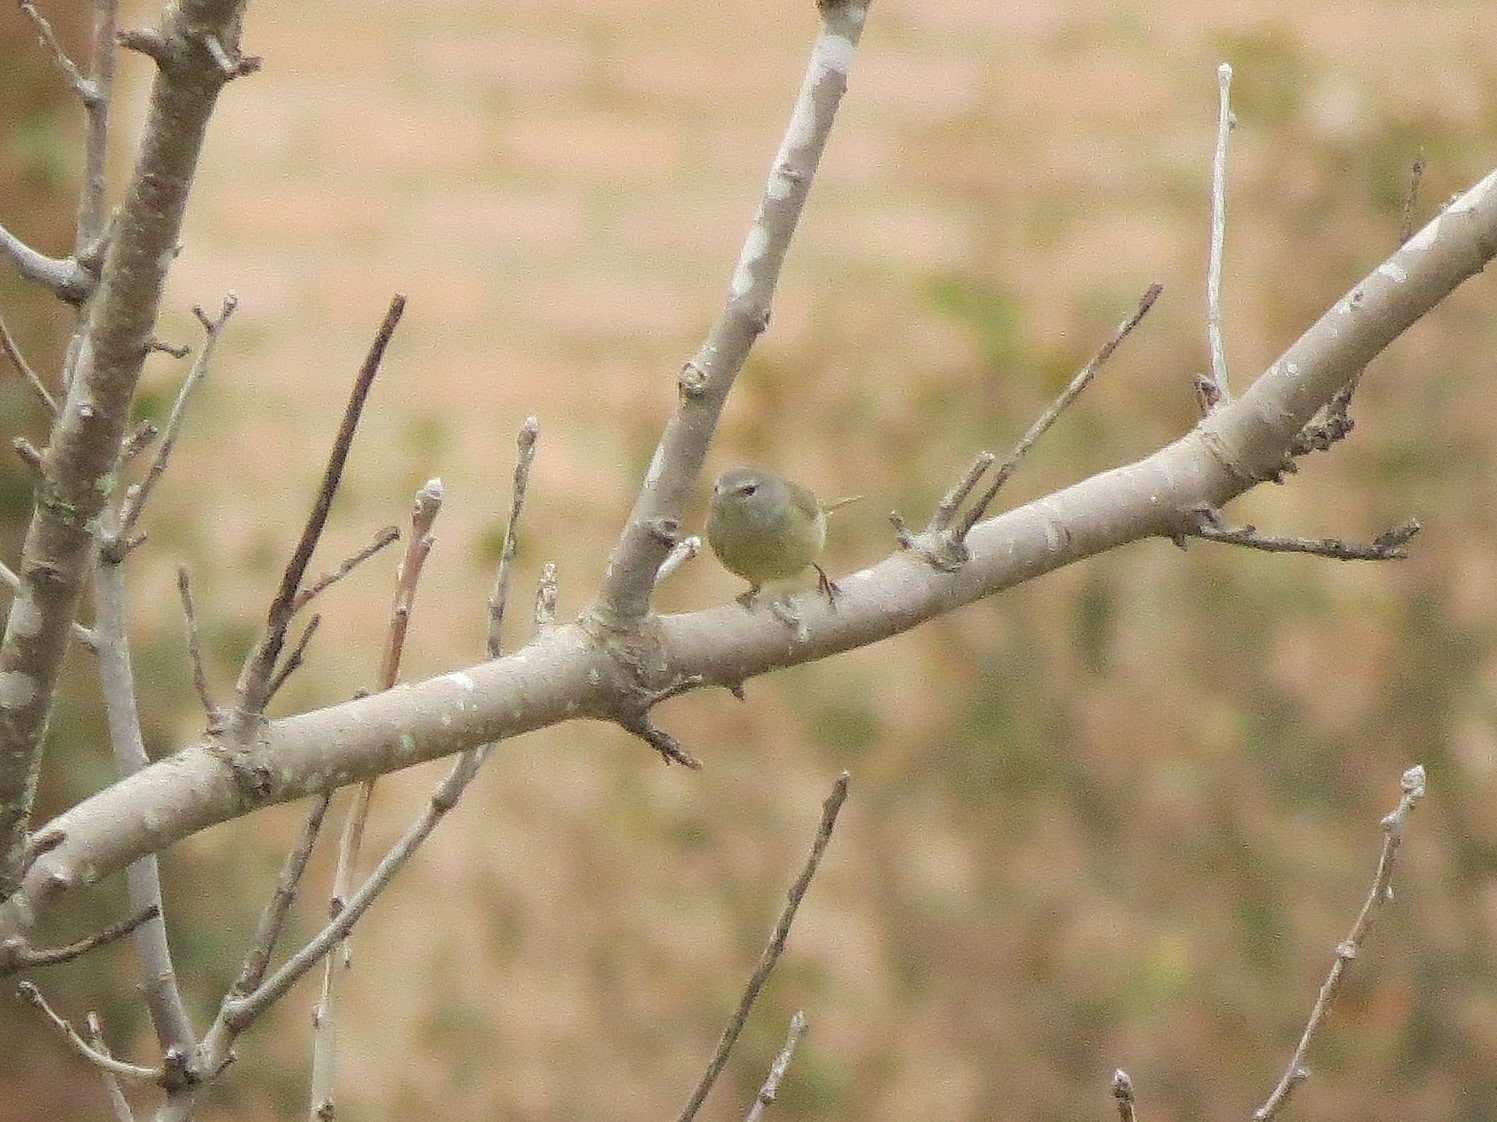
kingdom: Animalia
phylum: Chordata
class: Aves
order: Passeriformes
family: Parulidae
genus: Leiothlypis
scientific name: Leiothlypis celata
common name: Orange-crowned warbler
